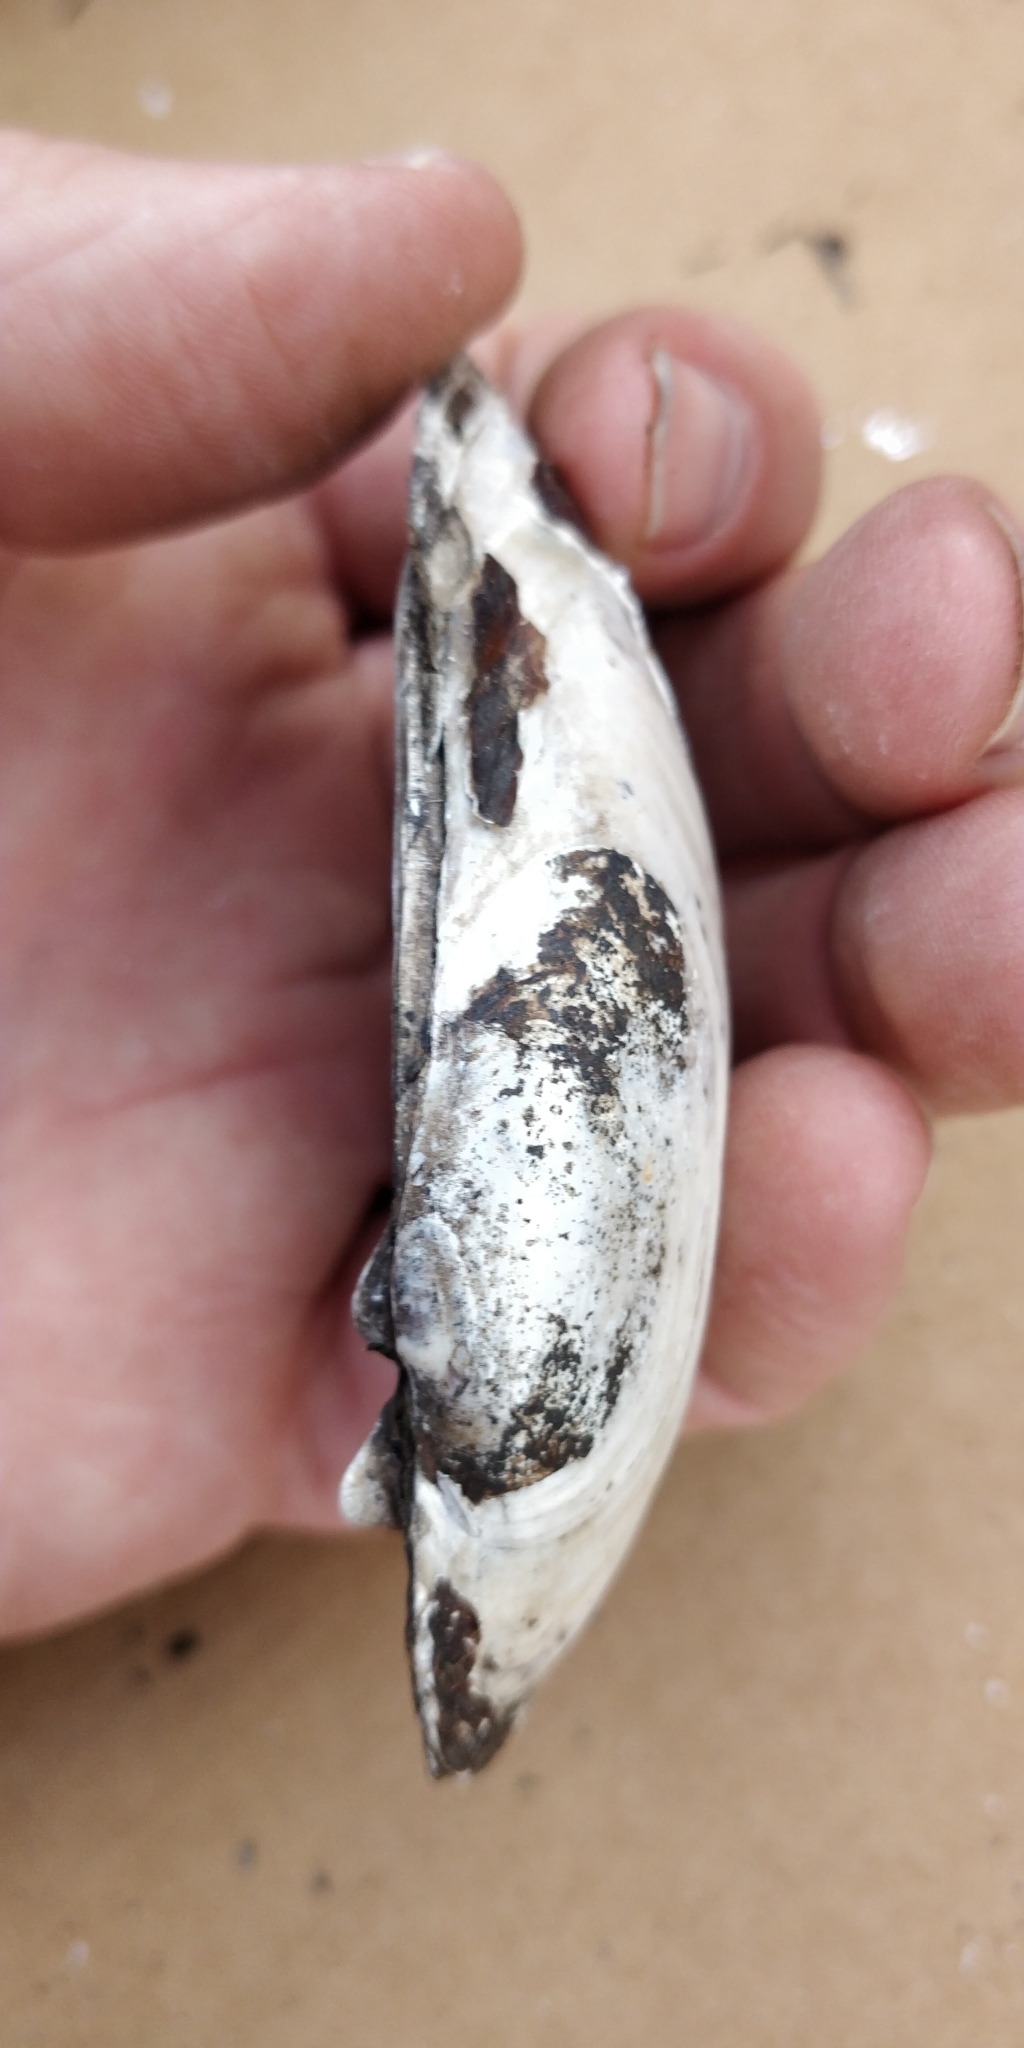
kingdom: Animalia
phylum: Mollusca
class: Bivalvia
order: Unionida
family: Unionidae
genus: Lampsilis
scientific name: Lampsilis siliquoidea
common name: Fatmucket
